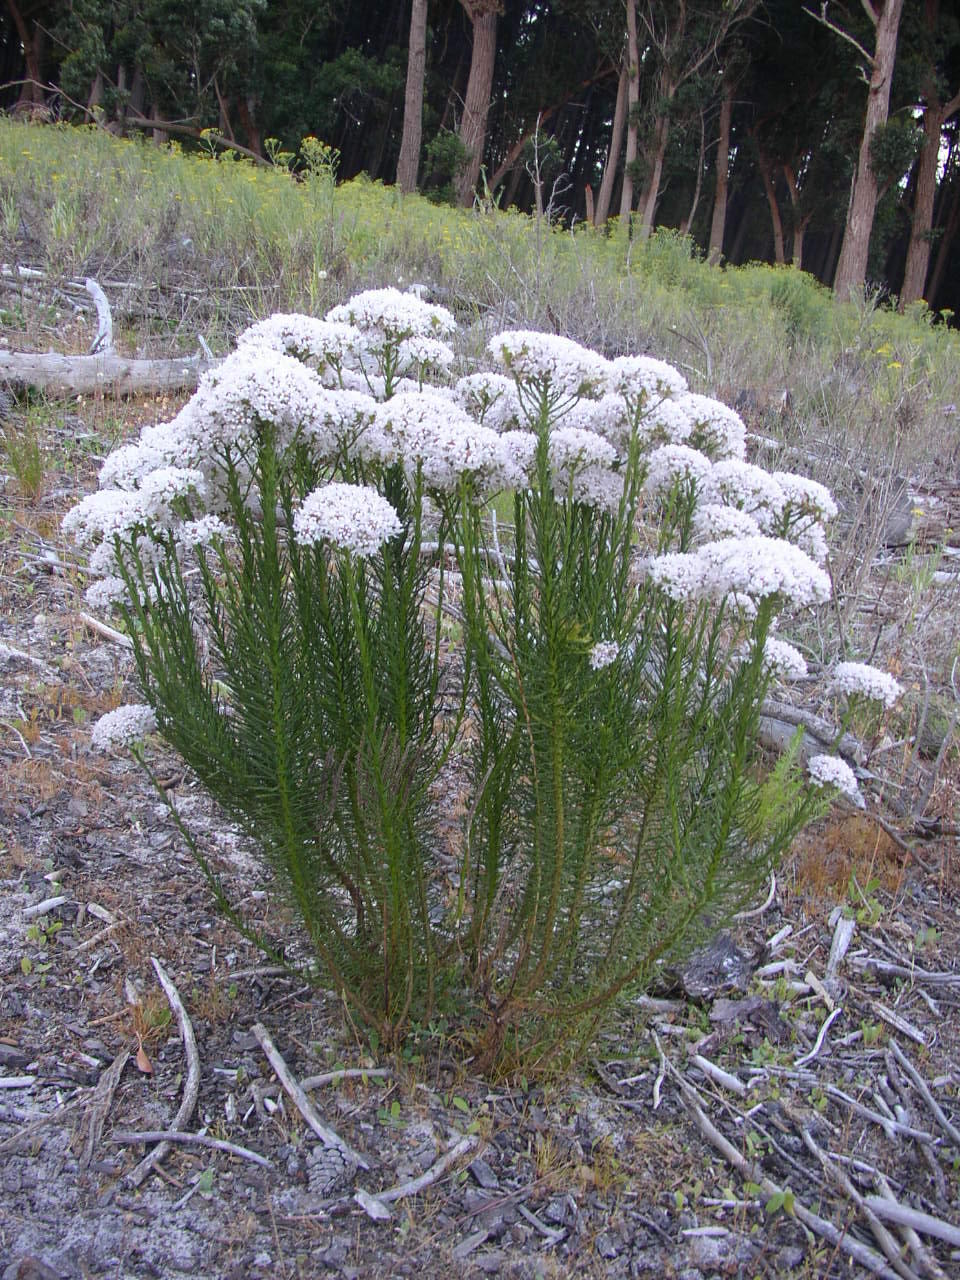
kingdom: Plantae
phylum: Tracheophyta
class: Magnoliopsida
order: Lamiales
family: Scrophulariaceae
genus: Pseudoselago
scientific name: Pseudoselago spuria
